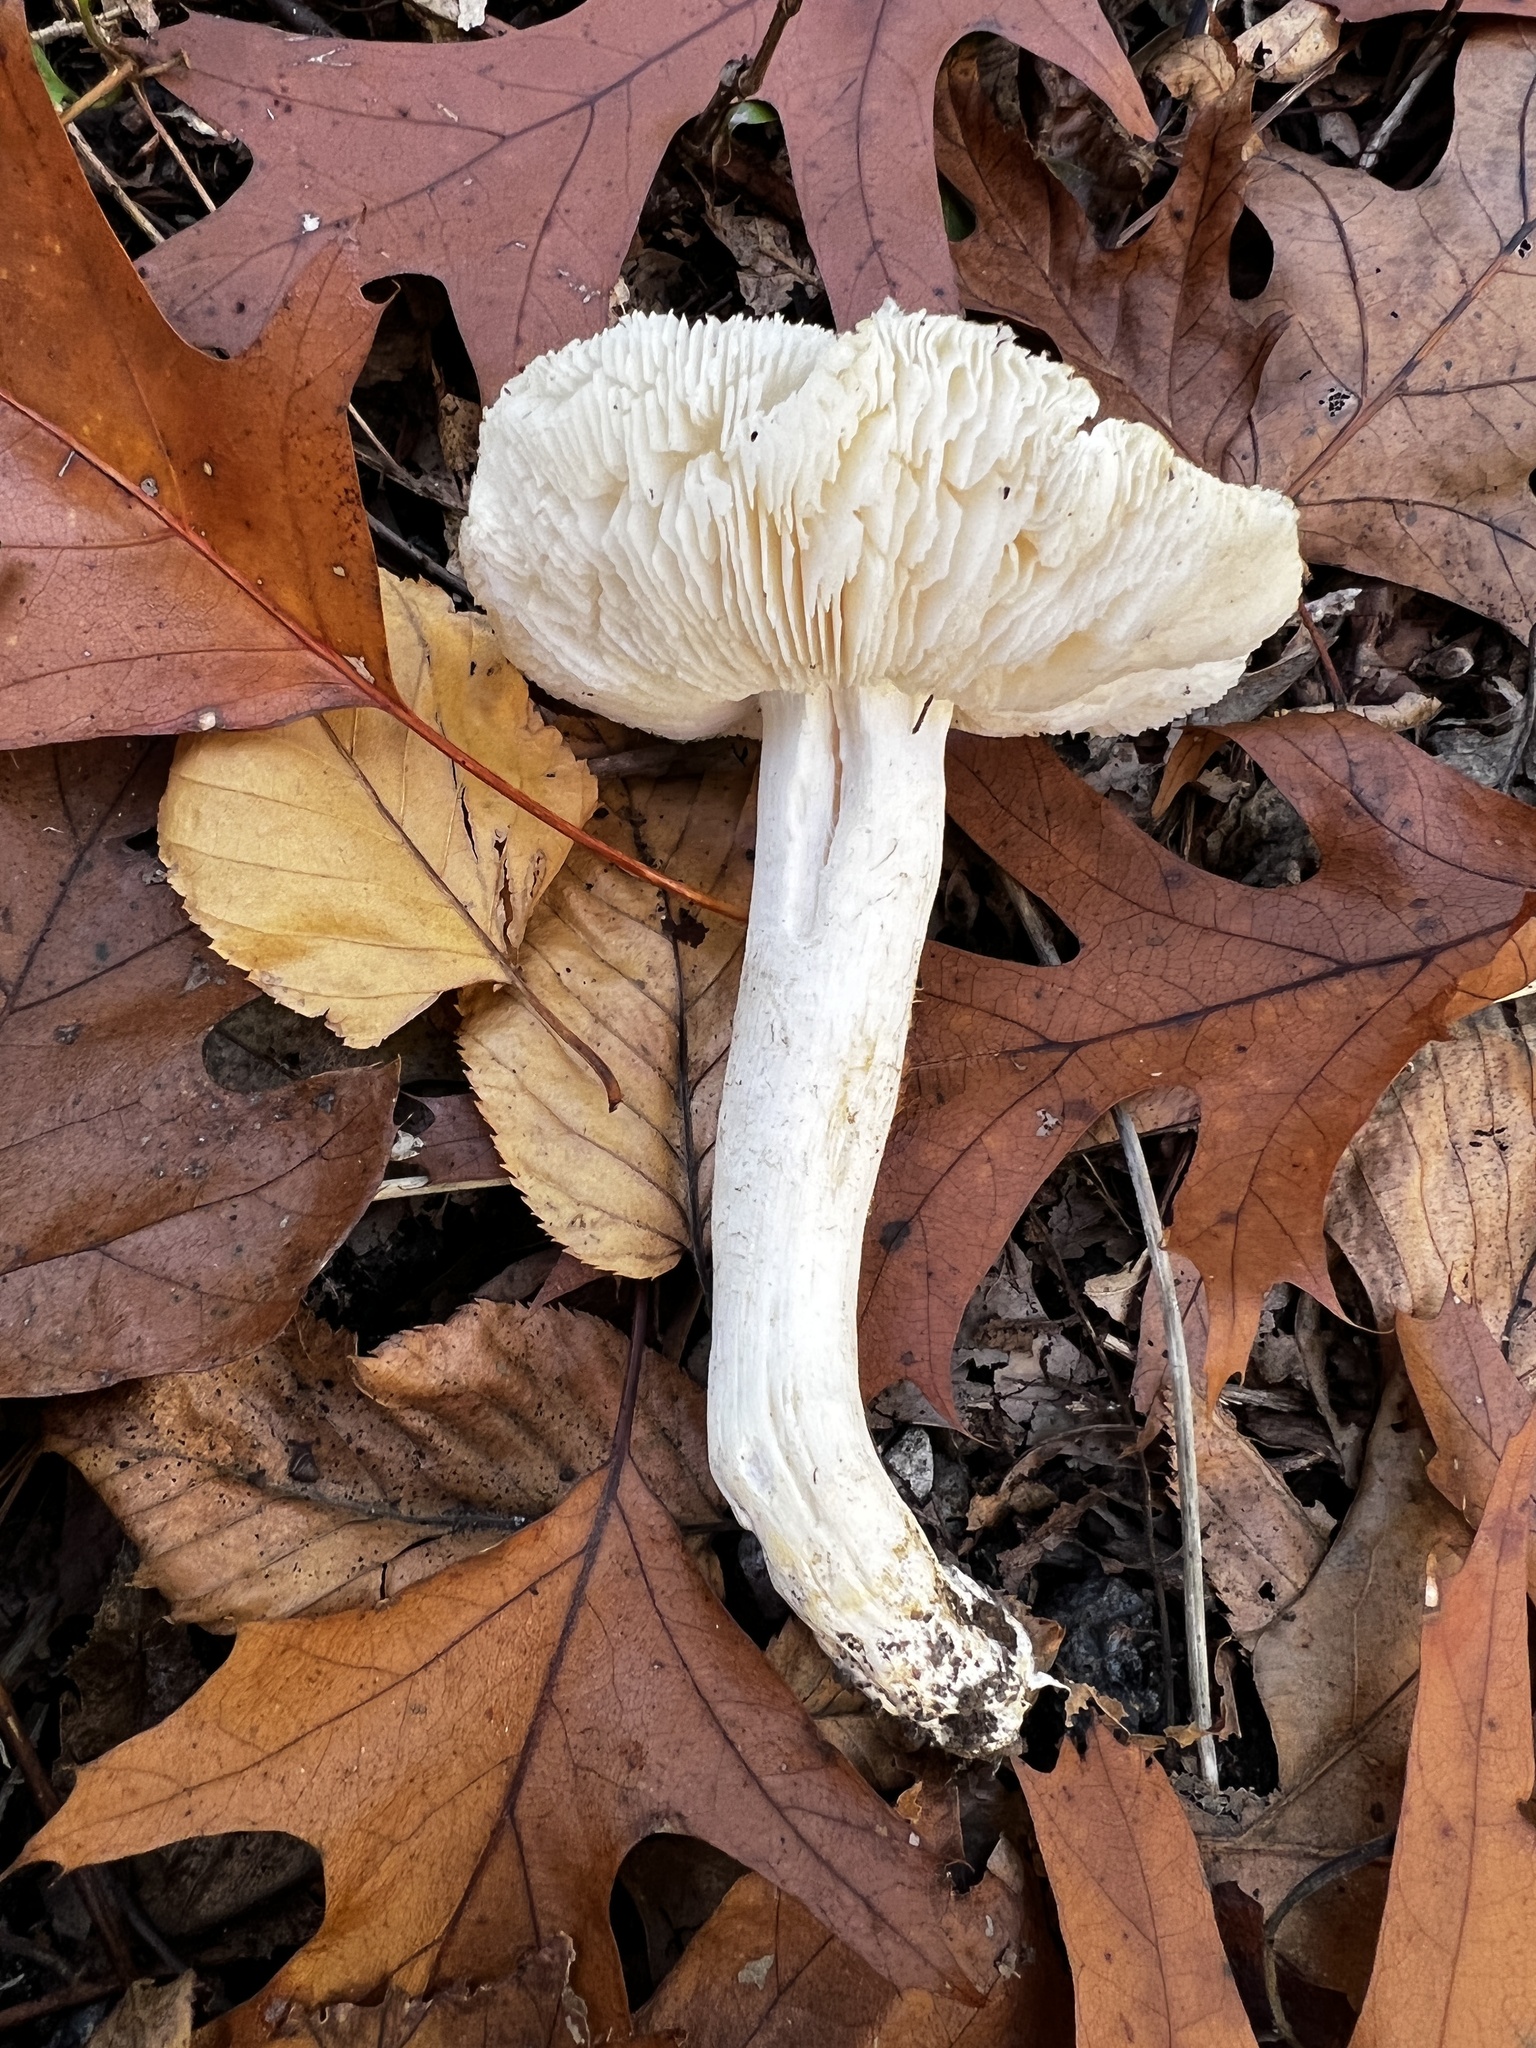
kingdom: Fungi
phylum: Basidiomycota
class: Agaricomycetes
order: Agaricales
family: Tricholomataceae
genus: Tricholoma
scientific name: Tricholoma columbetta
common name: Blue spot knight
